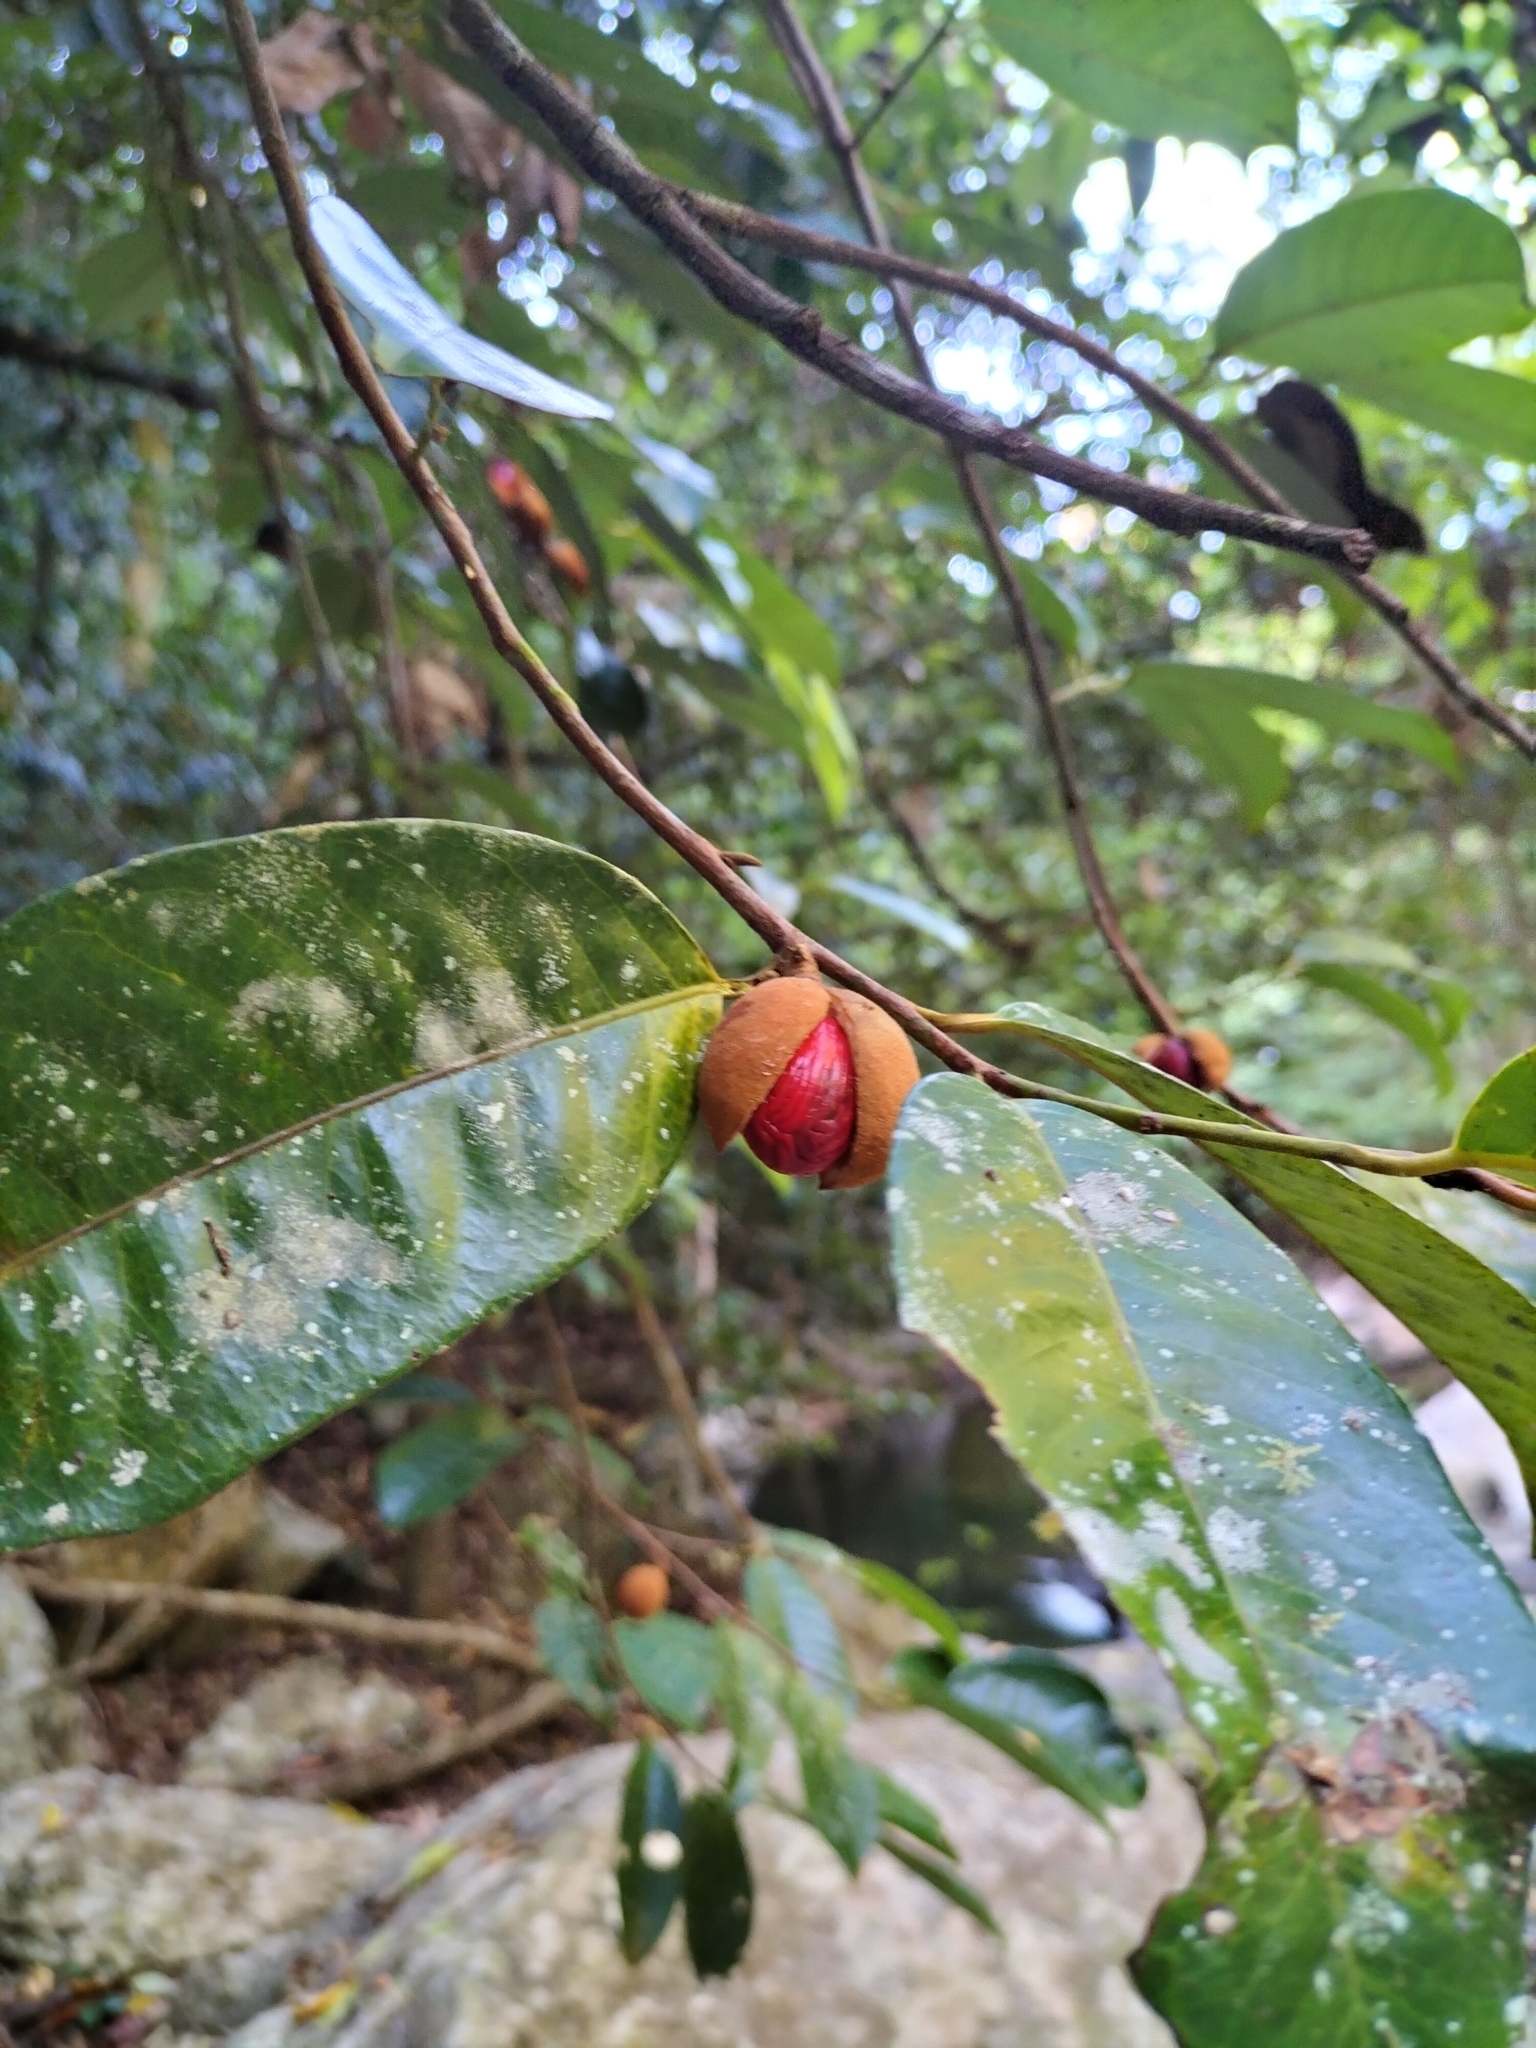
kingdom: Plantae
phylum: Tracheophyta
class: Magnoliopsida
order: Magnoliales
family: Myristicaceae
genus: Myristica
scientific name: Myristica globosa
